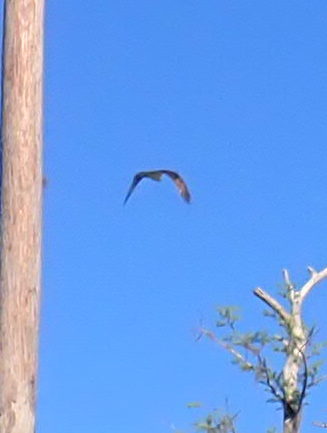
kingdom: Animalia
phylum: Chordata
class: Aves
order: Accipitriformes
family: Pandionidae
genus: Pandion
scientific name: Pandion haliaetus
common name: Osprey
